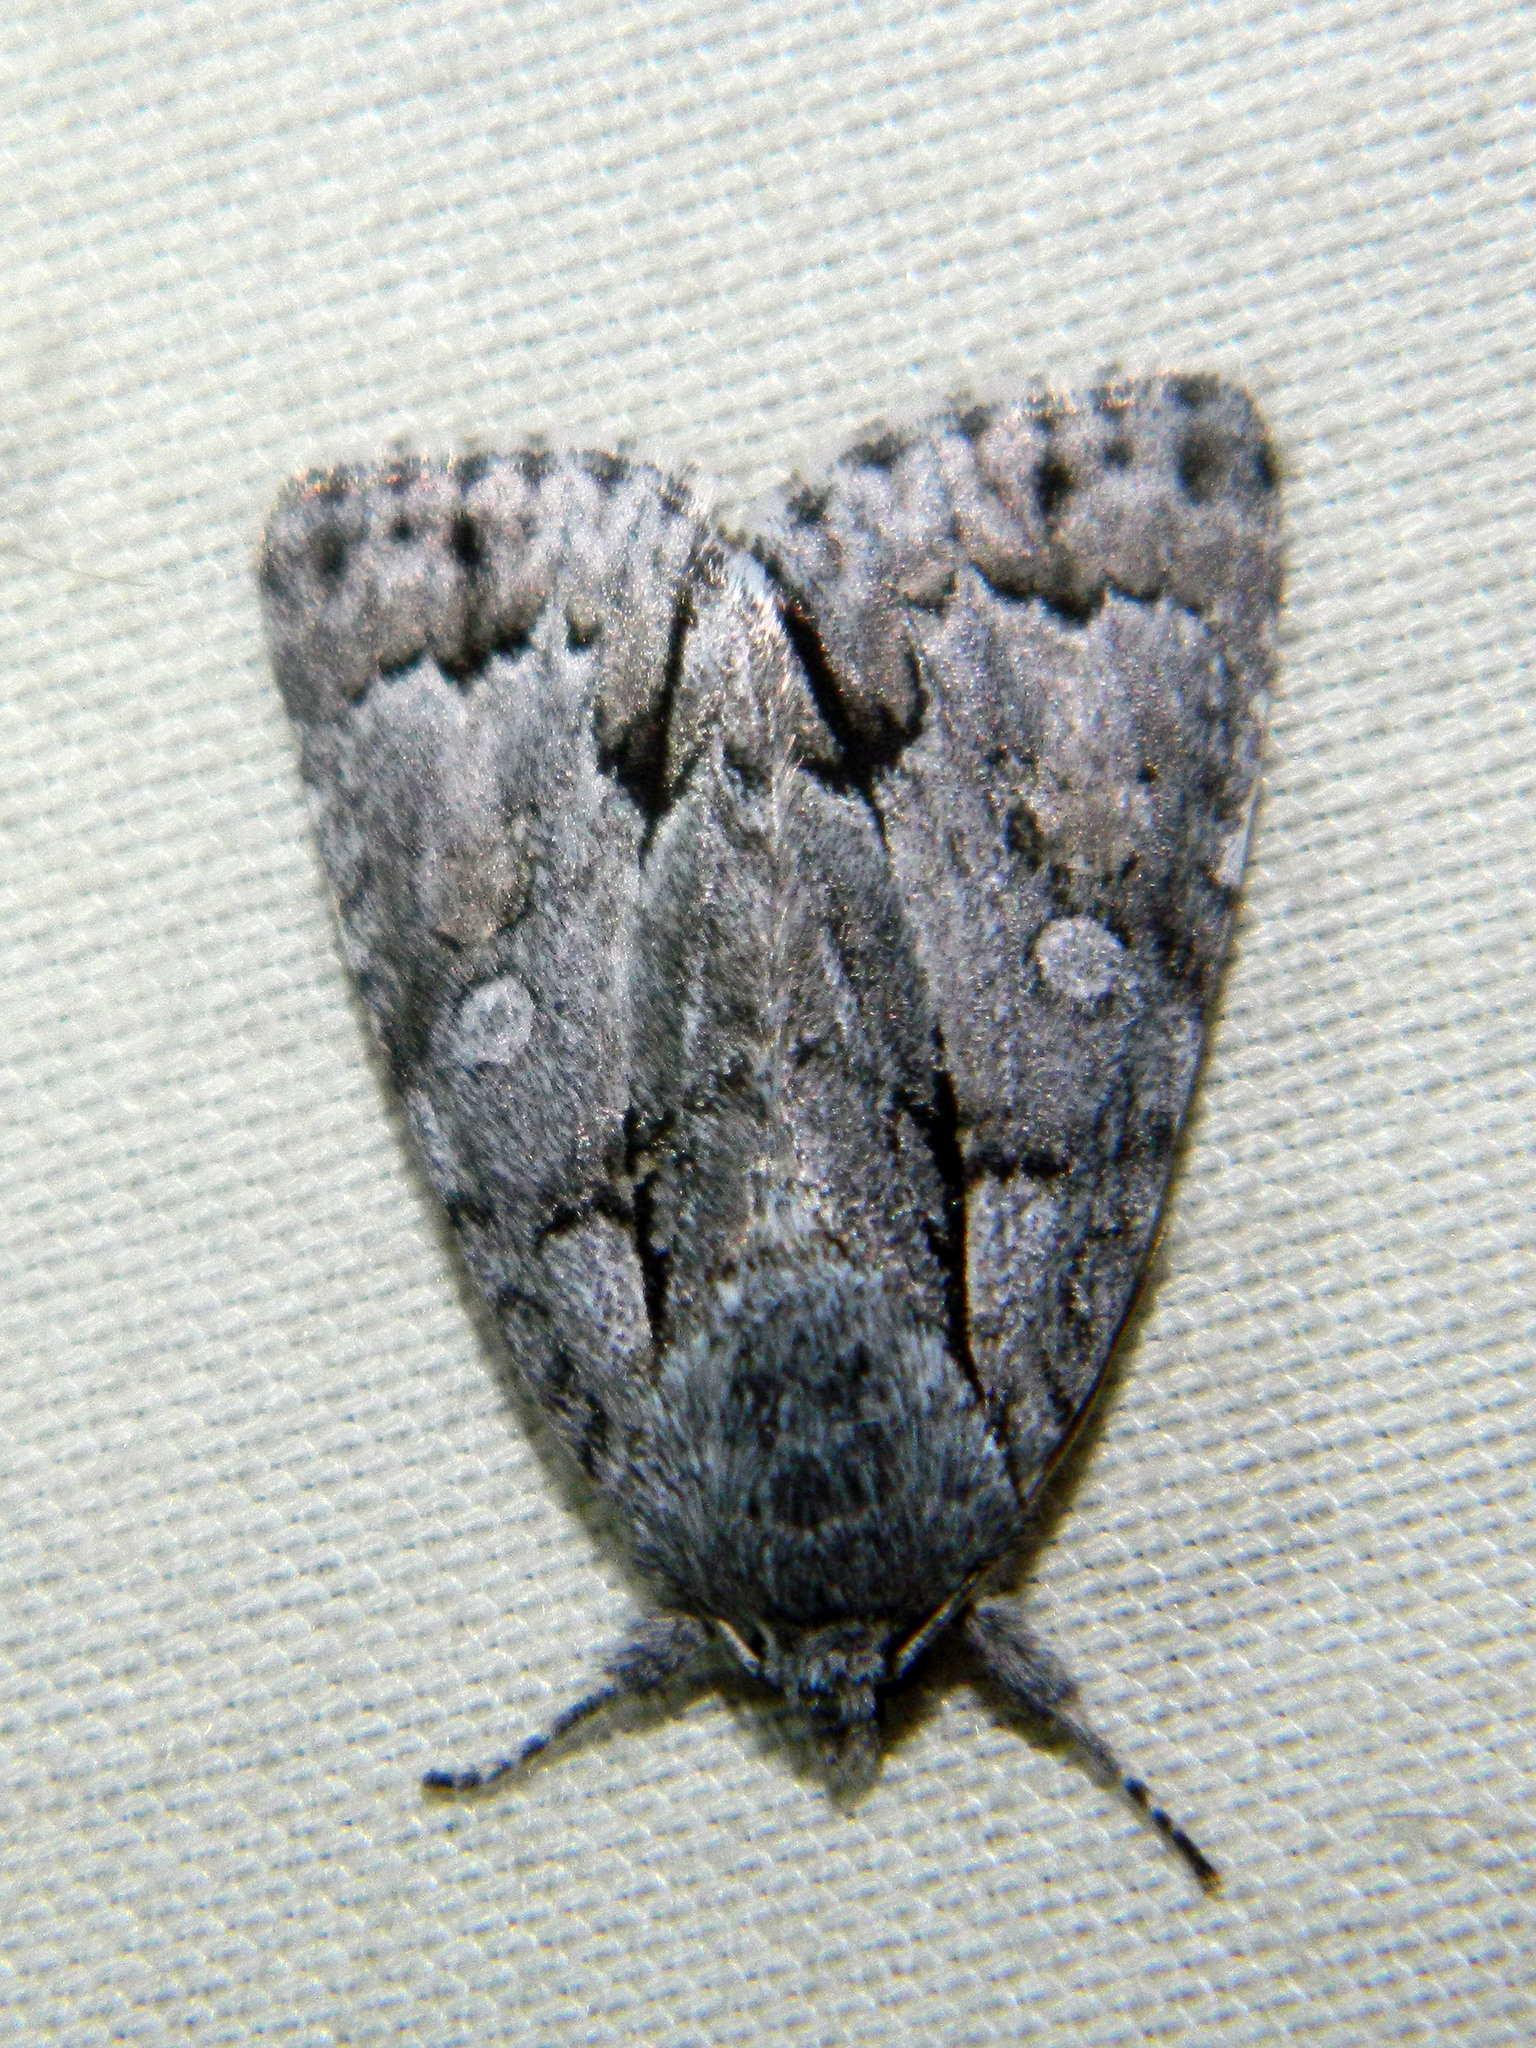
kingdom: Animalia
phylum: Arthropoda
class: Insecta
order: Lepidoptera
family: Noctuidae
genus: Acronicta
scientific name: Acronicta grisea
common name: Gray dagger
